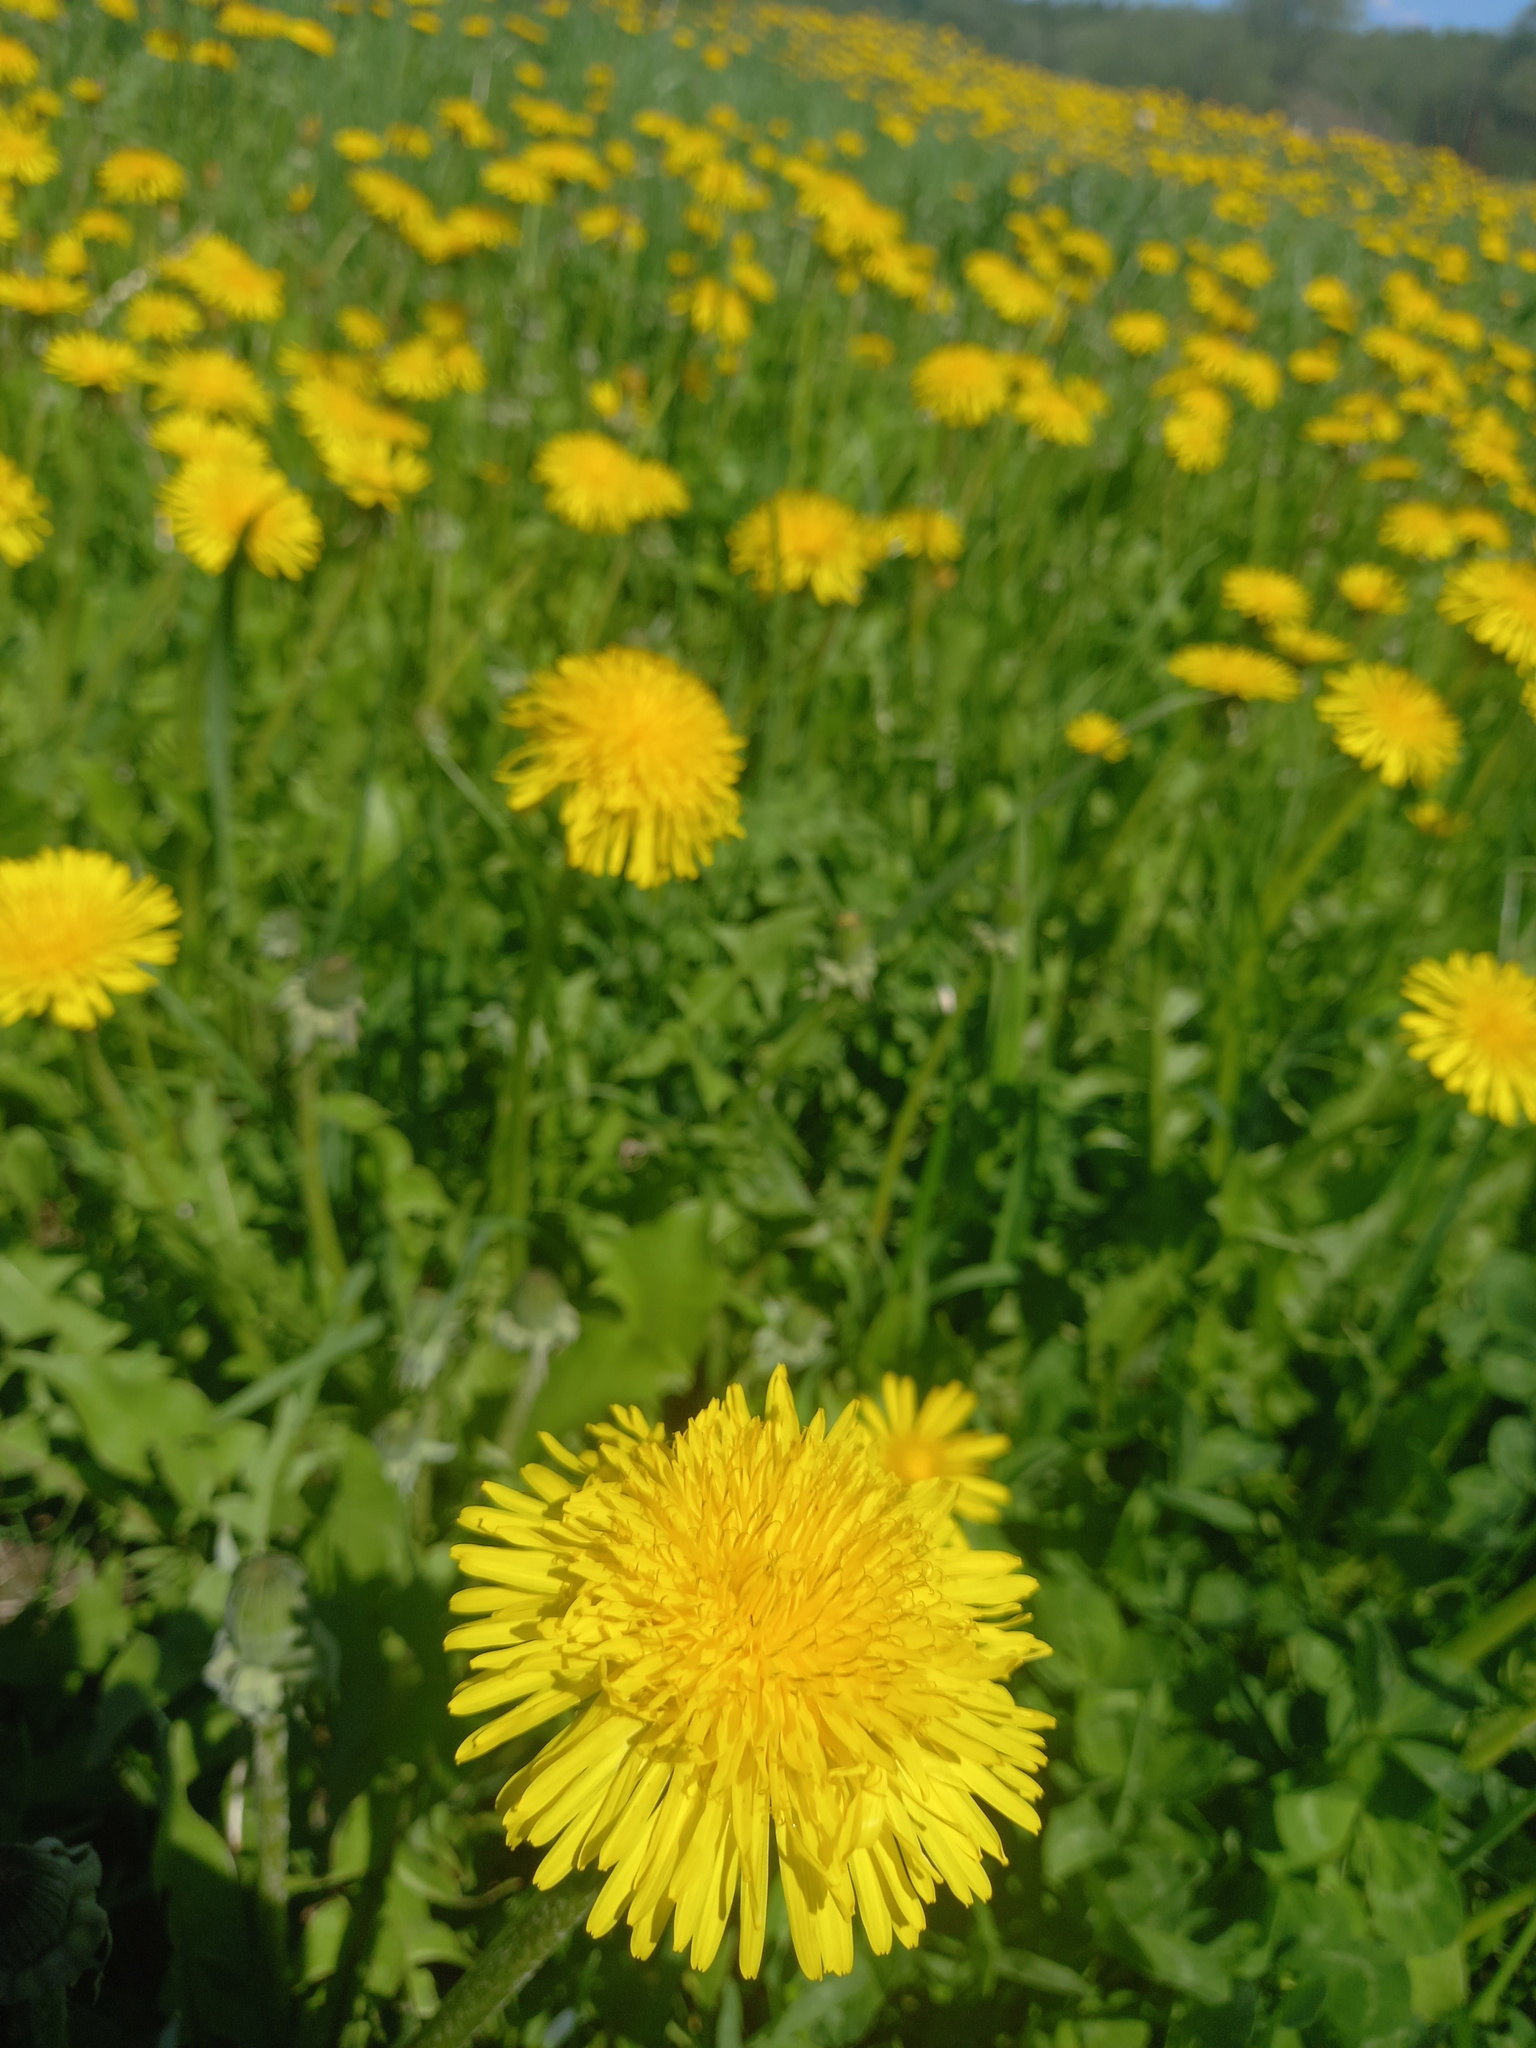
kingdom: Plantae
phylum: Tracheophyta
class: Magnoliopsida
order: Asterales
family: Asteraceae
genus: Taraxacum
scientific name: Taraxacum officinale
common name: Common dandelion
